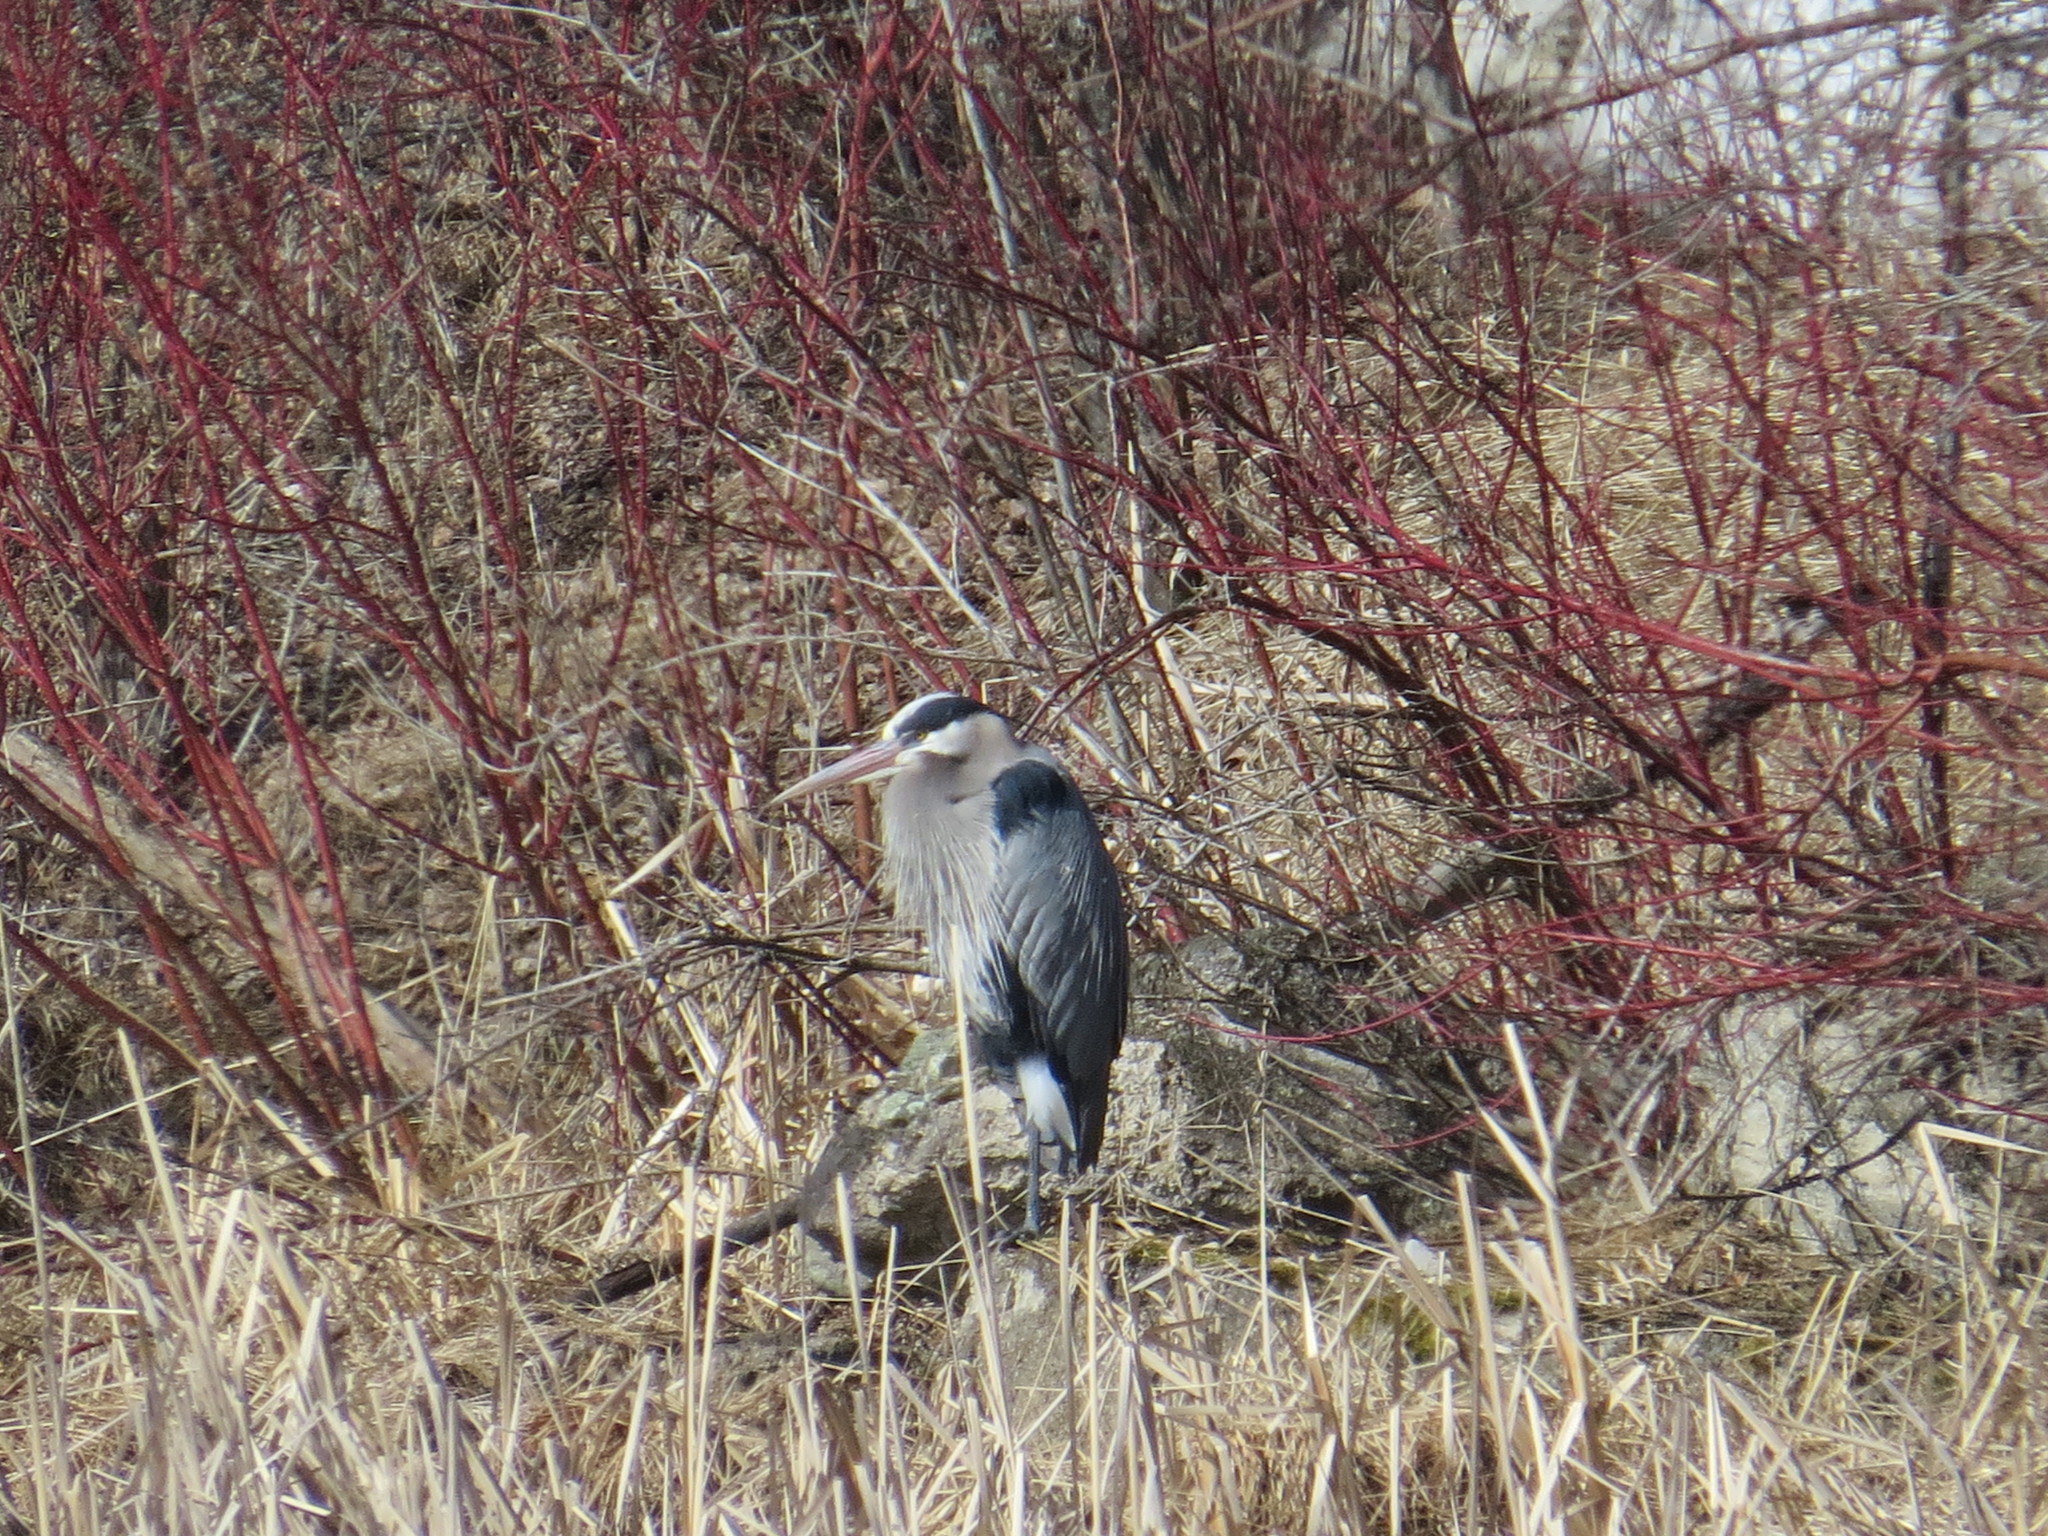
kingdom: Animalia
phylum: Chordata
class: Aves
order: Pelecaniformes
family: Ardeidae
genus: Ardea
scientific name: Ardea herodias
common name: Great blue heron
